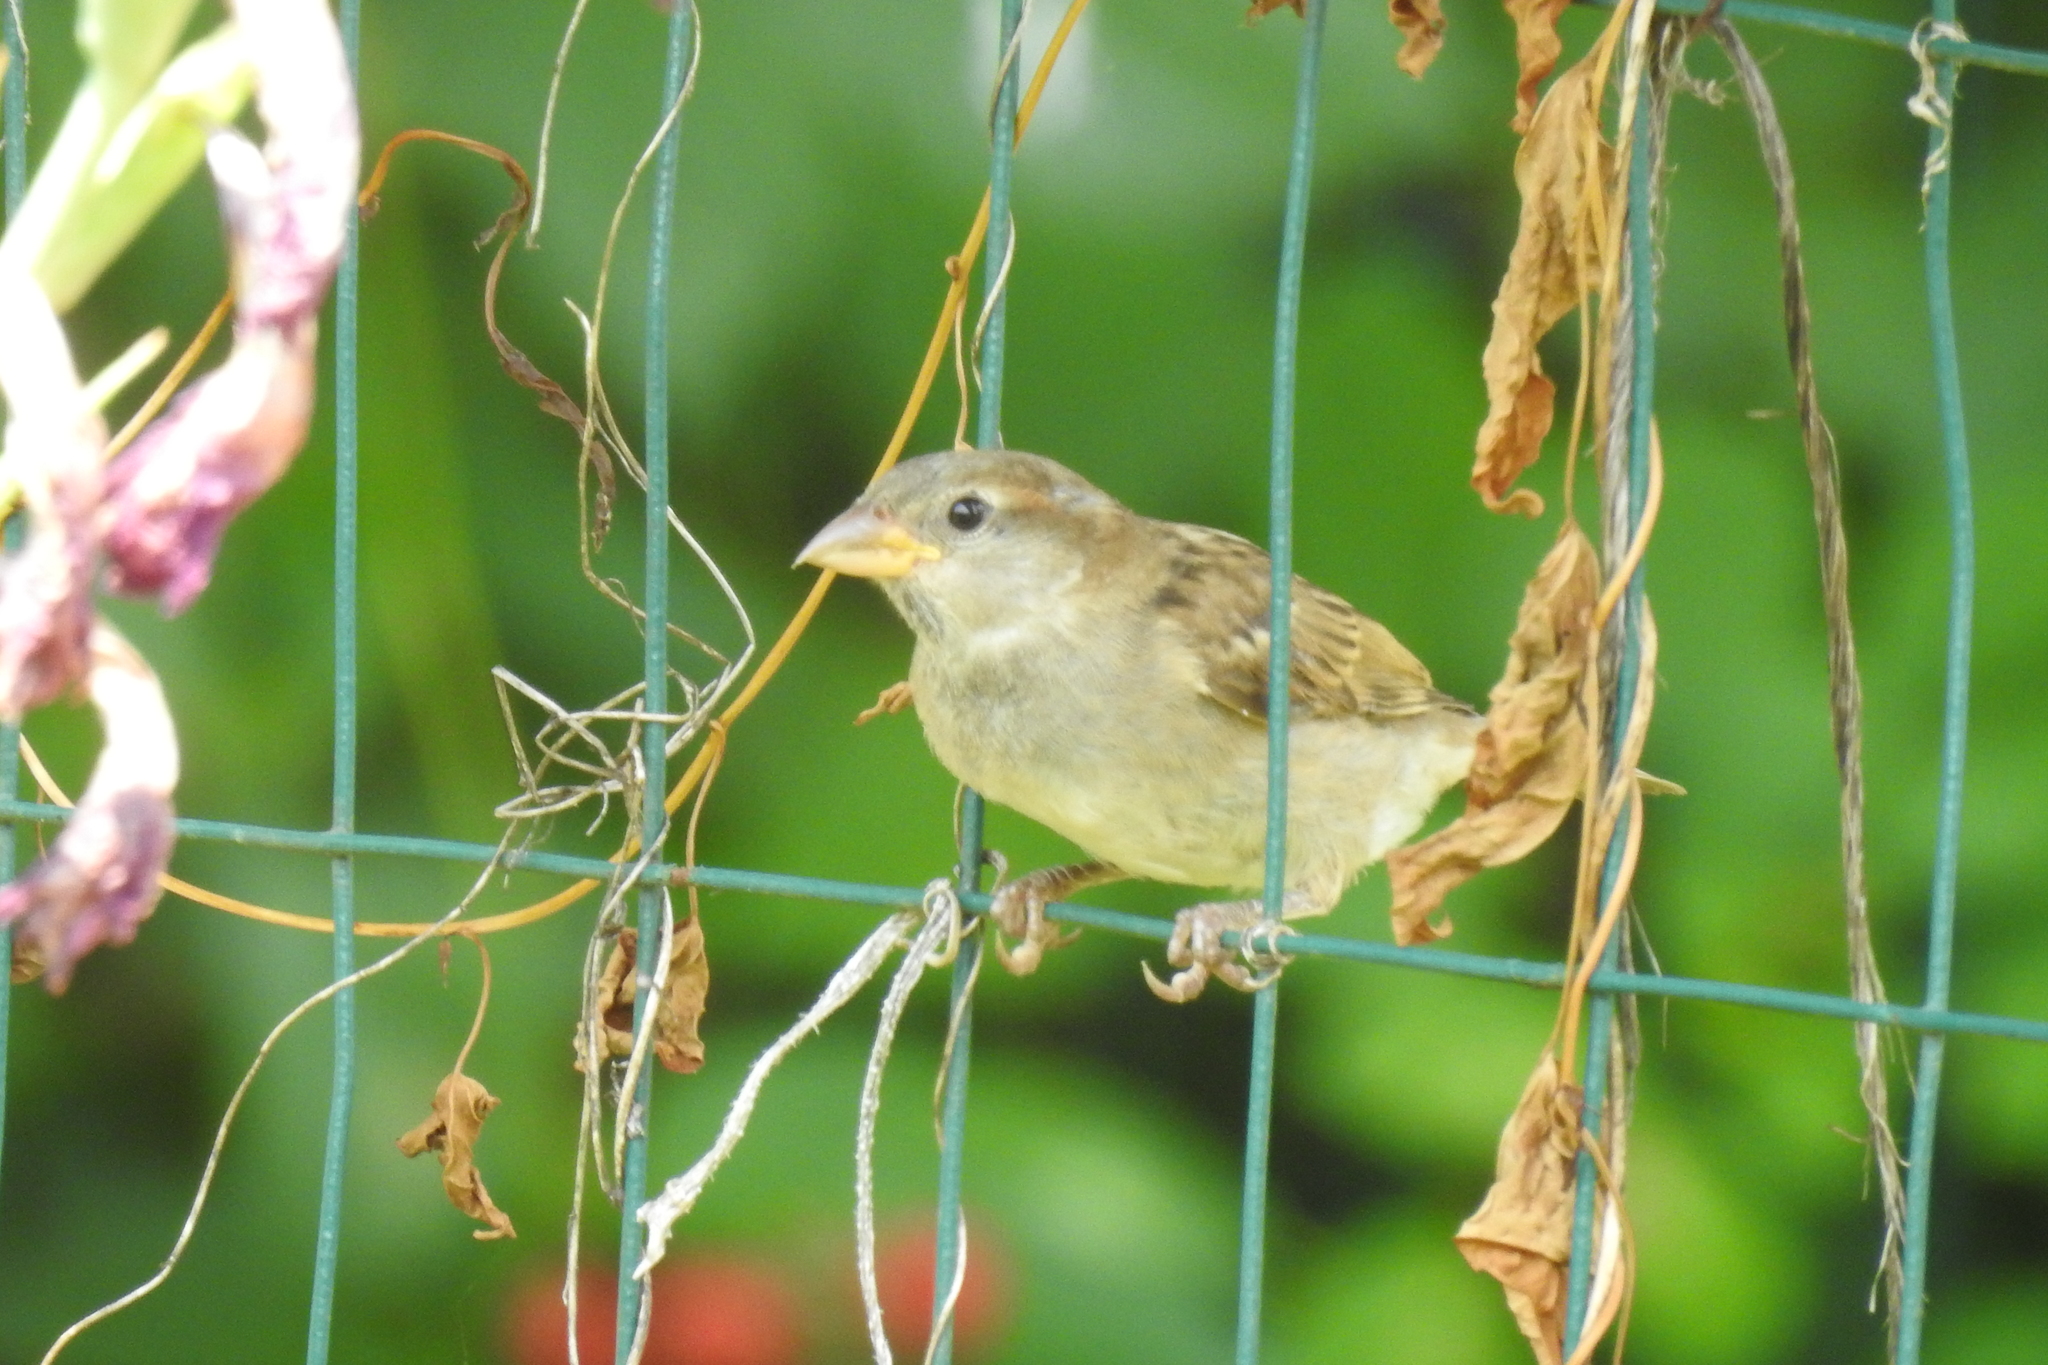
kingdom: Animalia
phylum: Chordata
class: Aves
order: Passeriformes
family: Passeridae
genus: Passer
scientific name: Passer domesticus
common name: House sparrow
